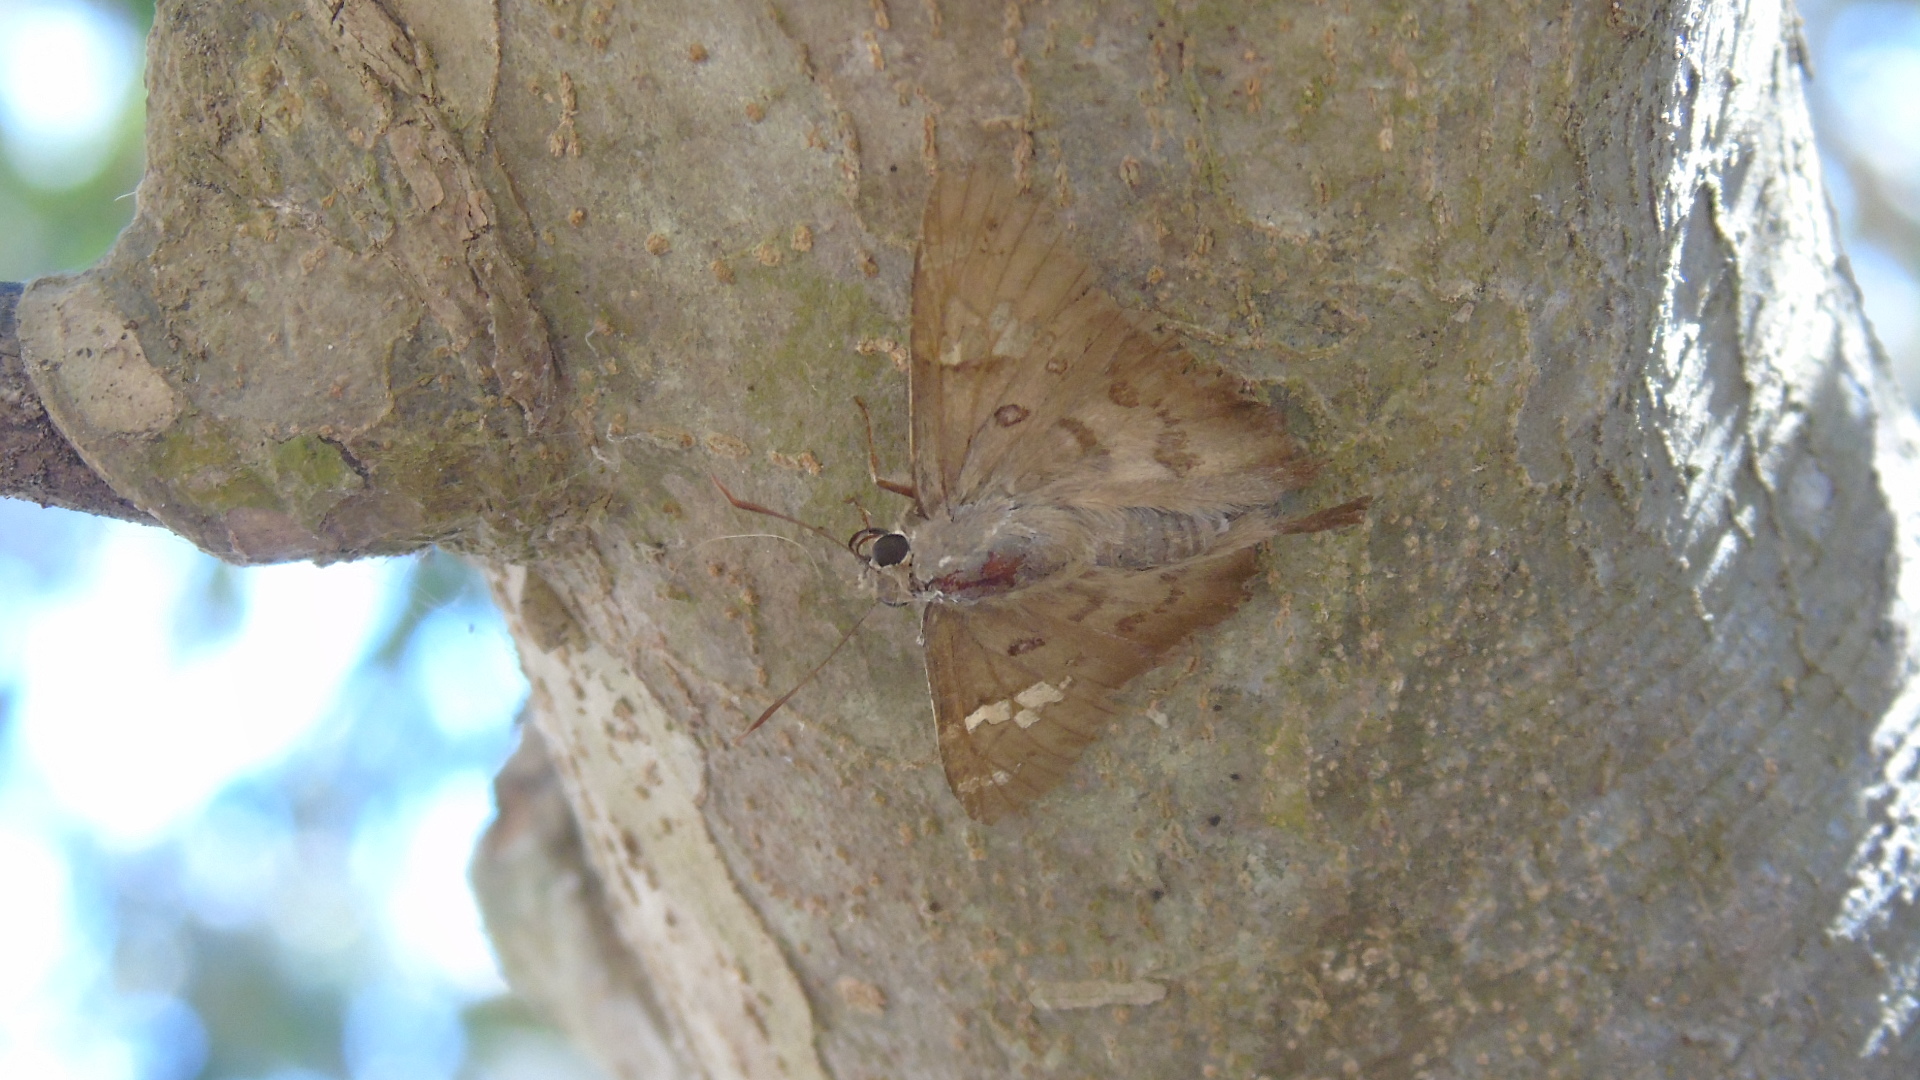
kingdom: Animalia
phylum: Arthropoda
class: Insecta
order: Lepidoptera
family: Hesperiidae
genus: Ectomis
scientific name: Ectomis
